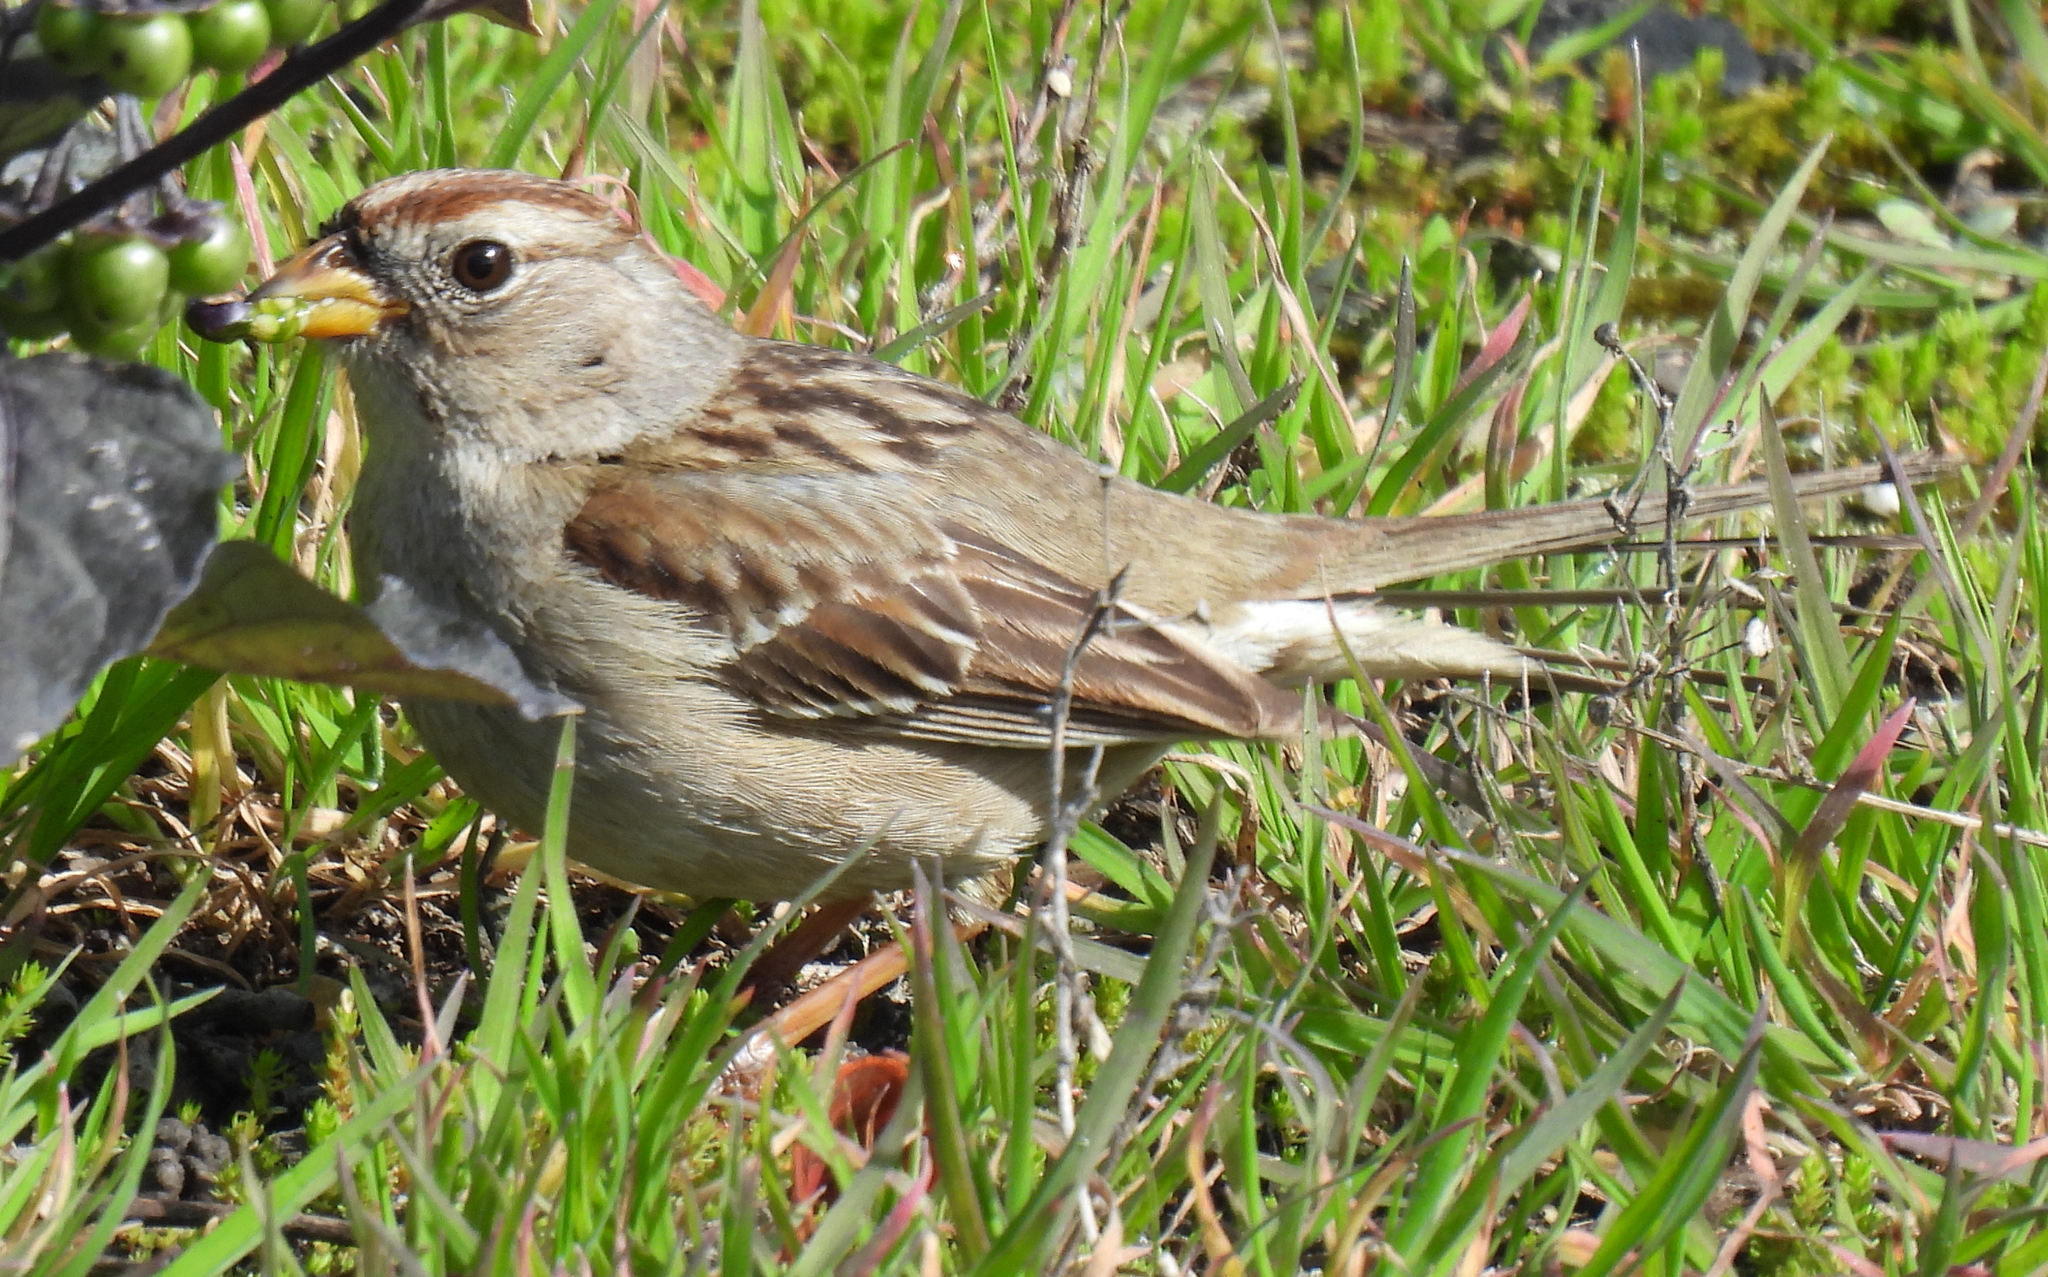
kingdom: Animalia
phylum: Chordata
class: Aves
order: Passeriformes
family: Passerellidae
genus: Zonotrichia
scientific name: Zonotrichia leucophrys
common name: White-crowned sparrow
